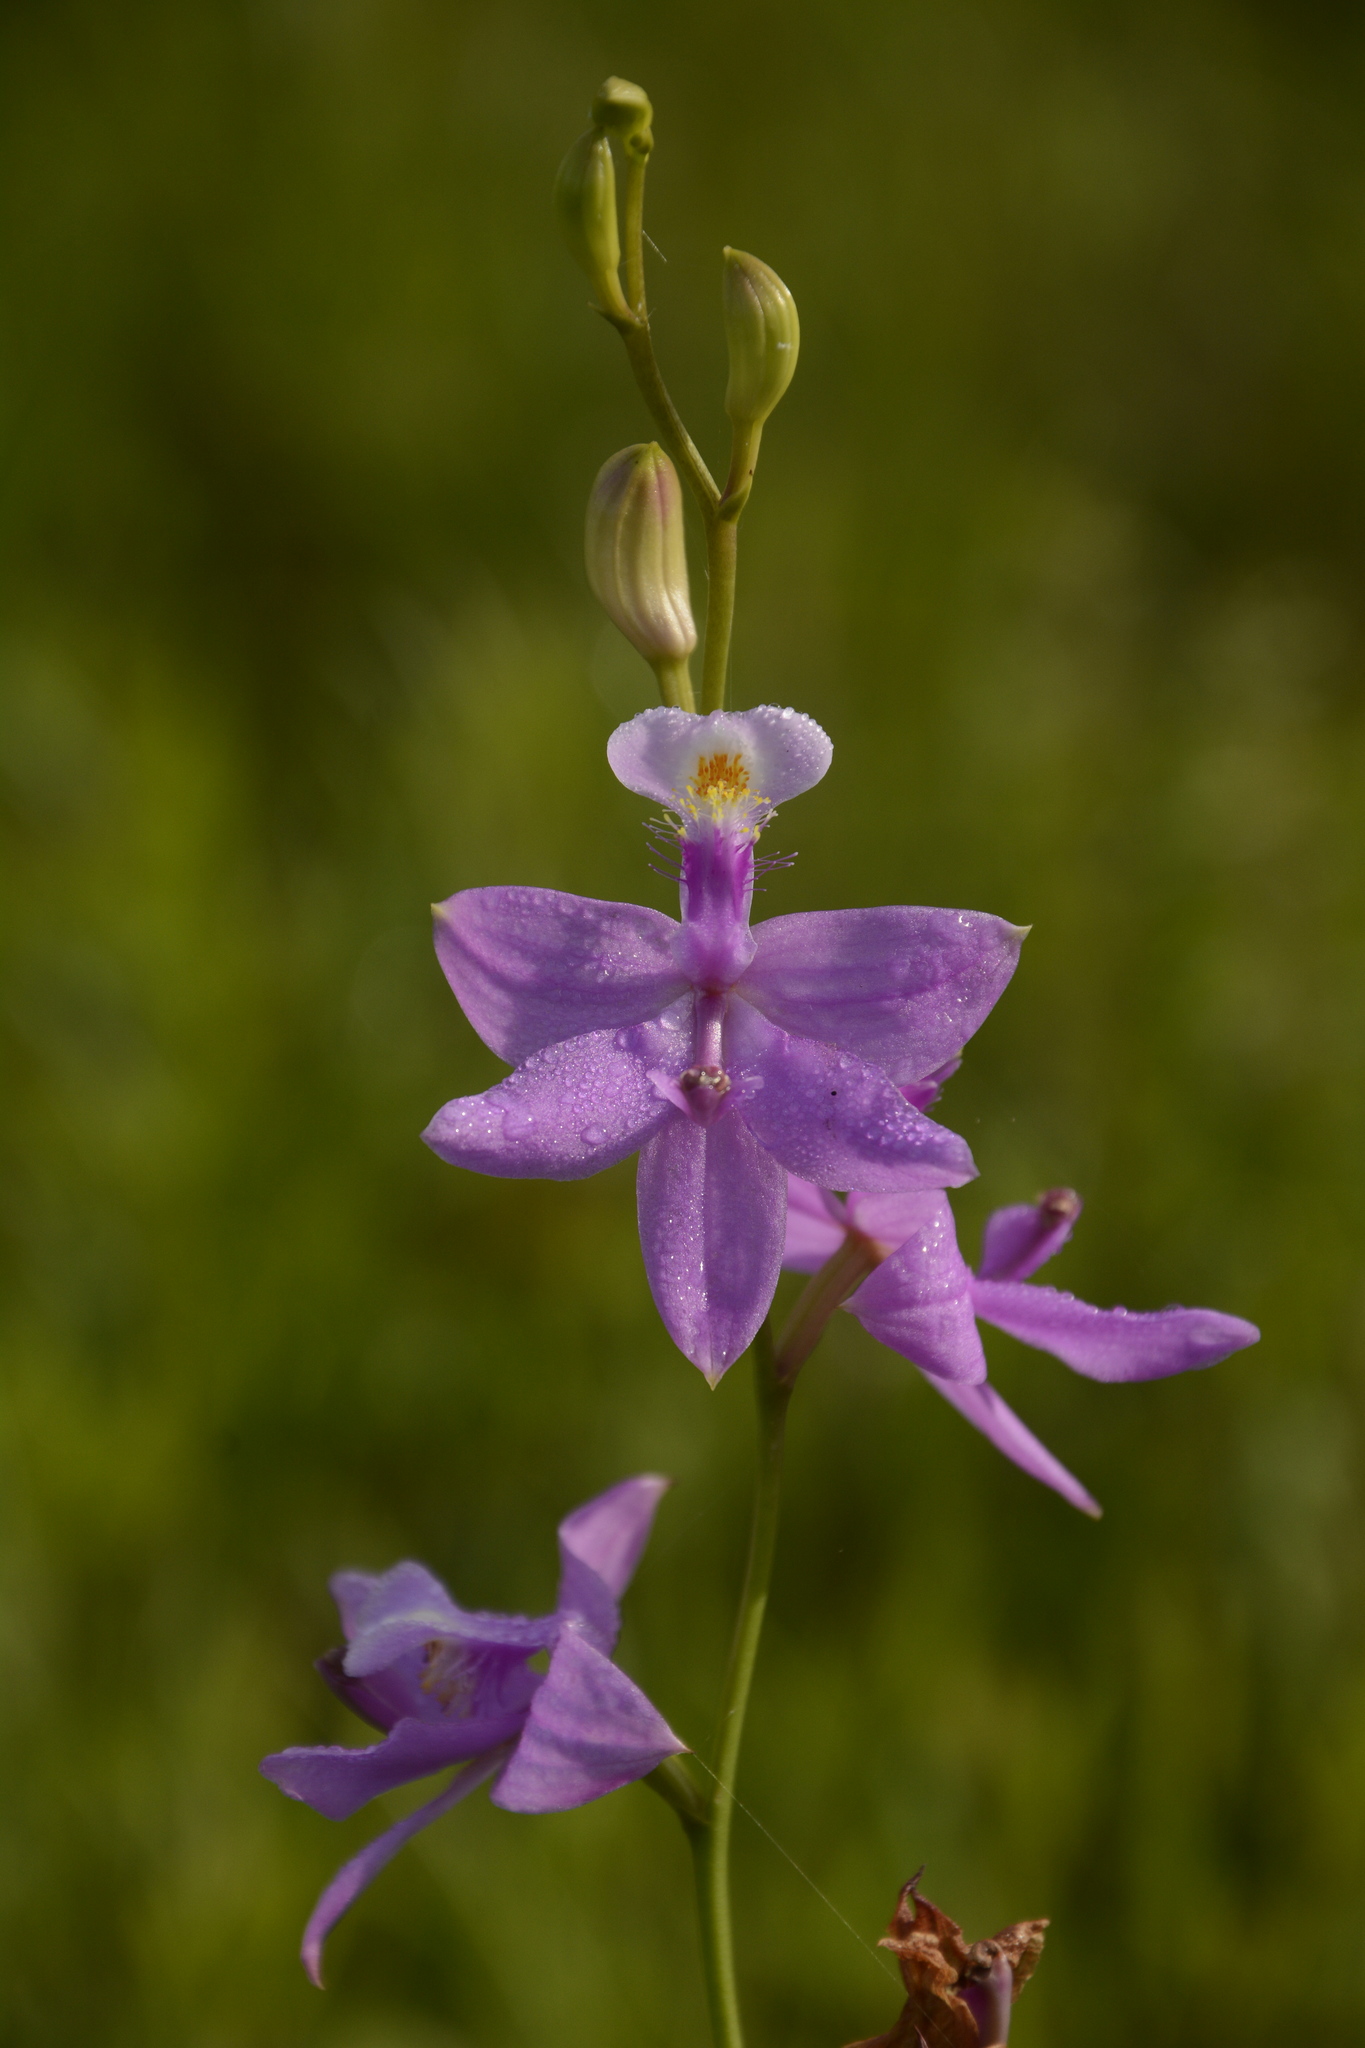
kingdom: Plantae
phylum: Tracheophyta
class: Liliopsida
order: Asparagales
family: Orchidaceae
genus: Calopogon
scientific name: Calopogon tuberosus
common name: Grass-pink
